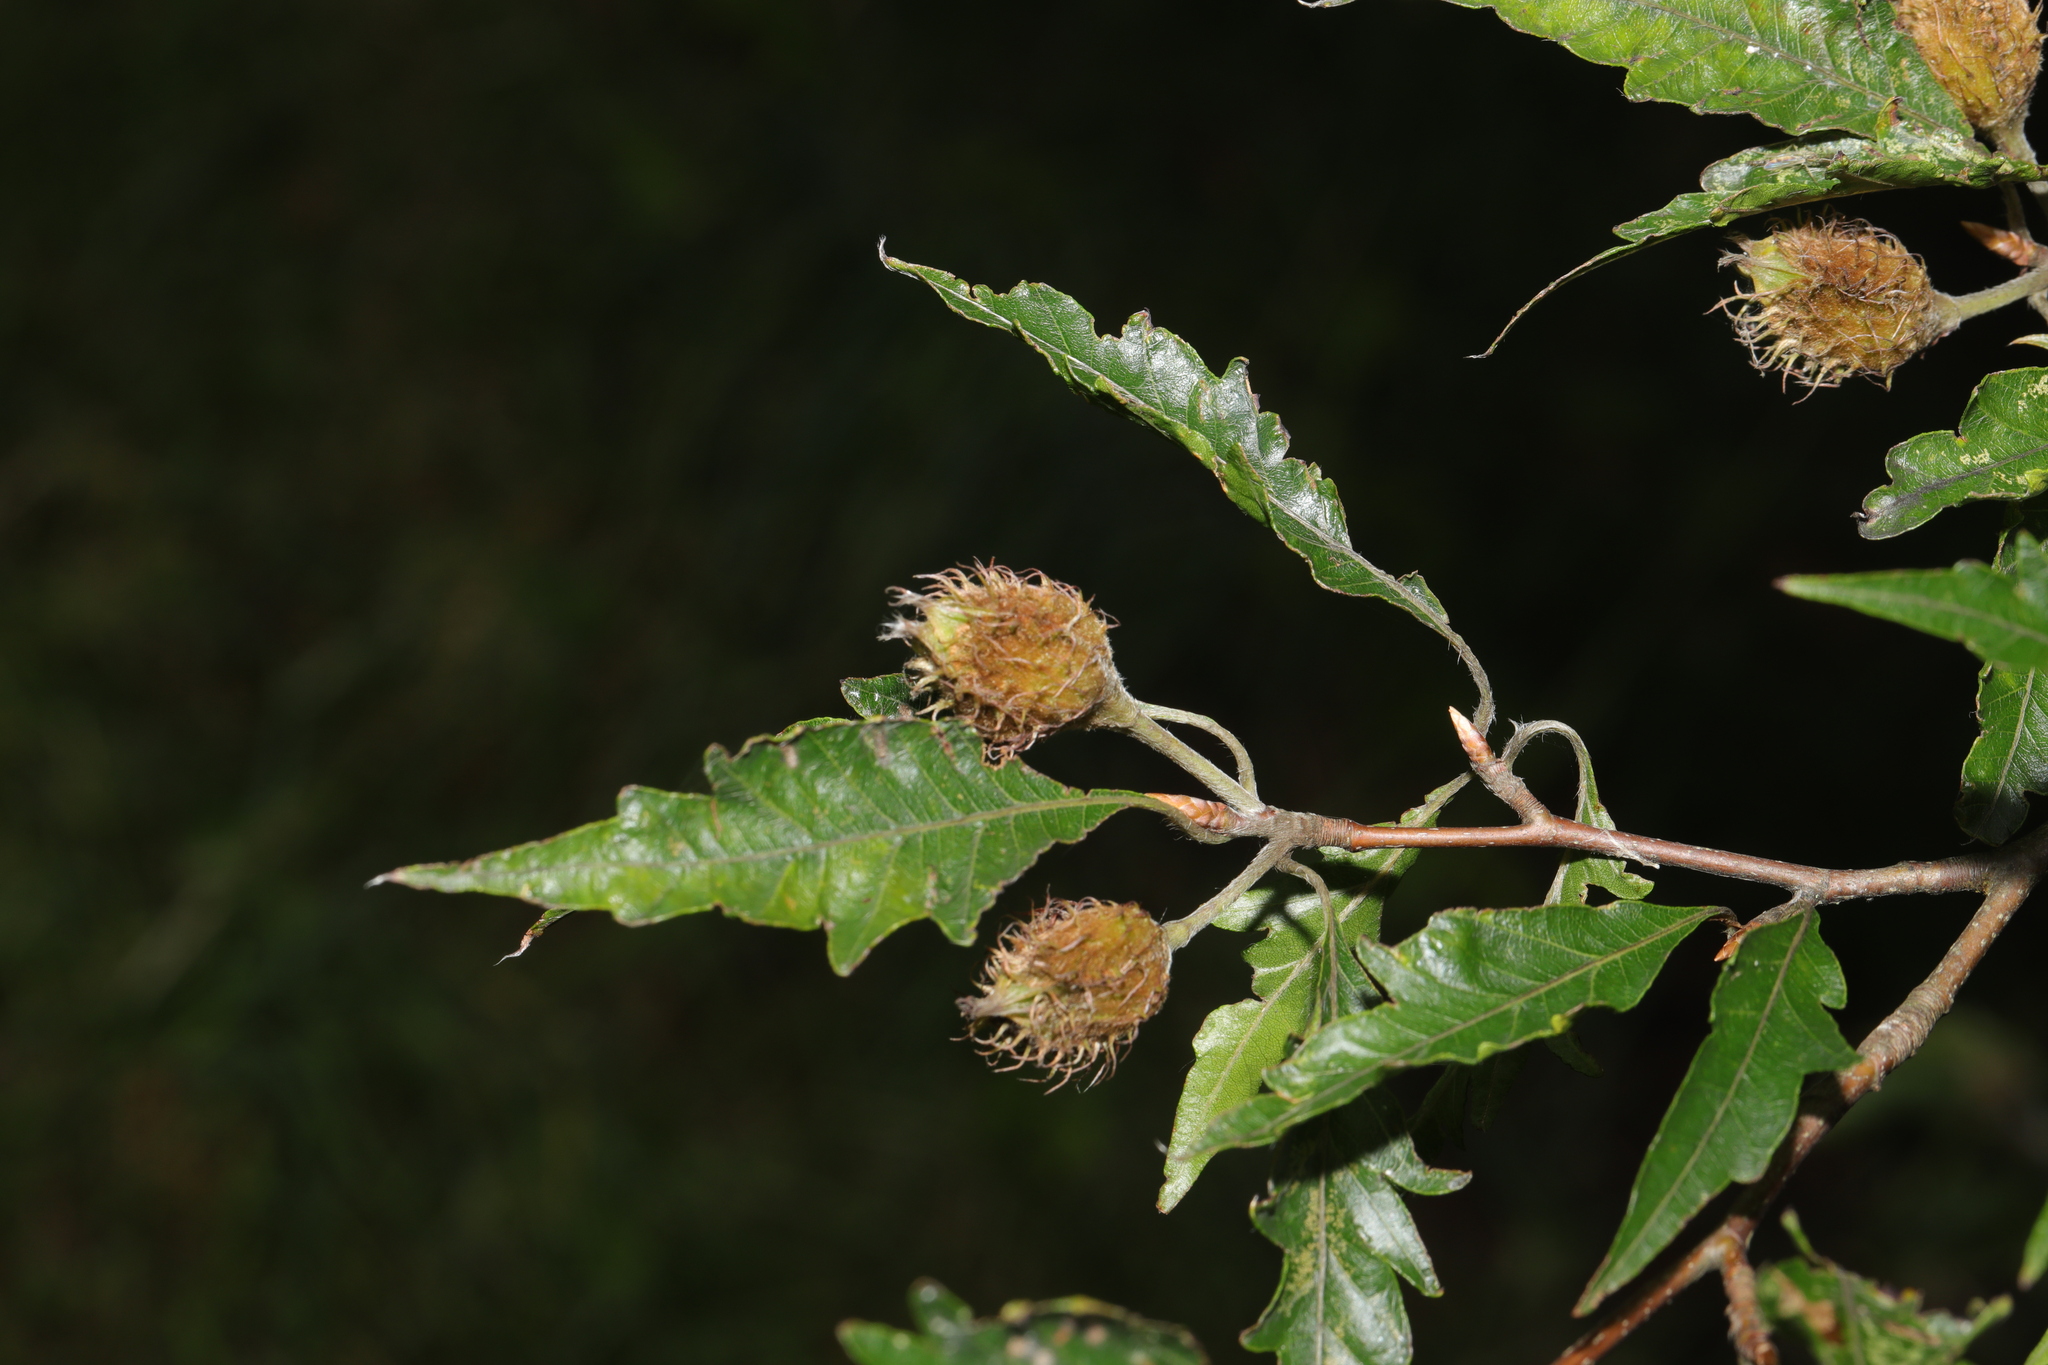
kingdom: Plantae
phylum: Tracheophyta
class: Magnoliopsida
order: Fagales
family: Fagaceae
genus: Fagus
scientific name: Fagus sylvatica
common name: Beech
